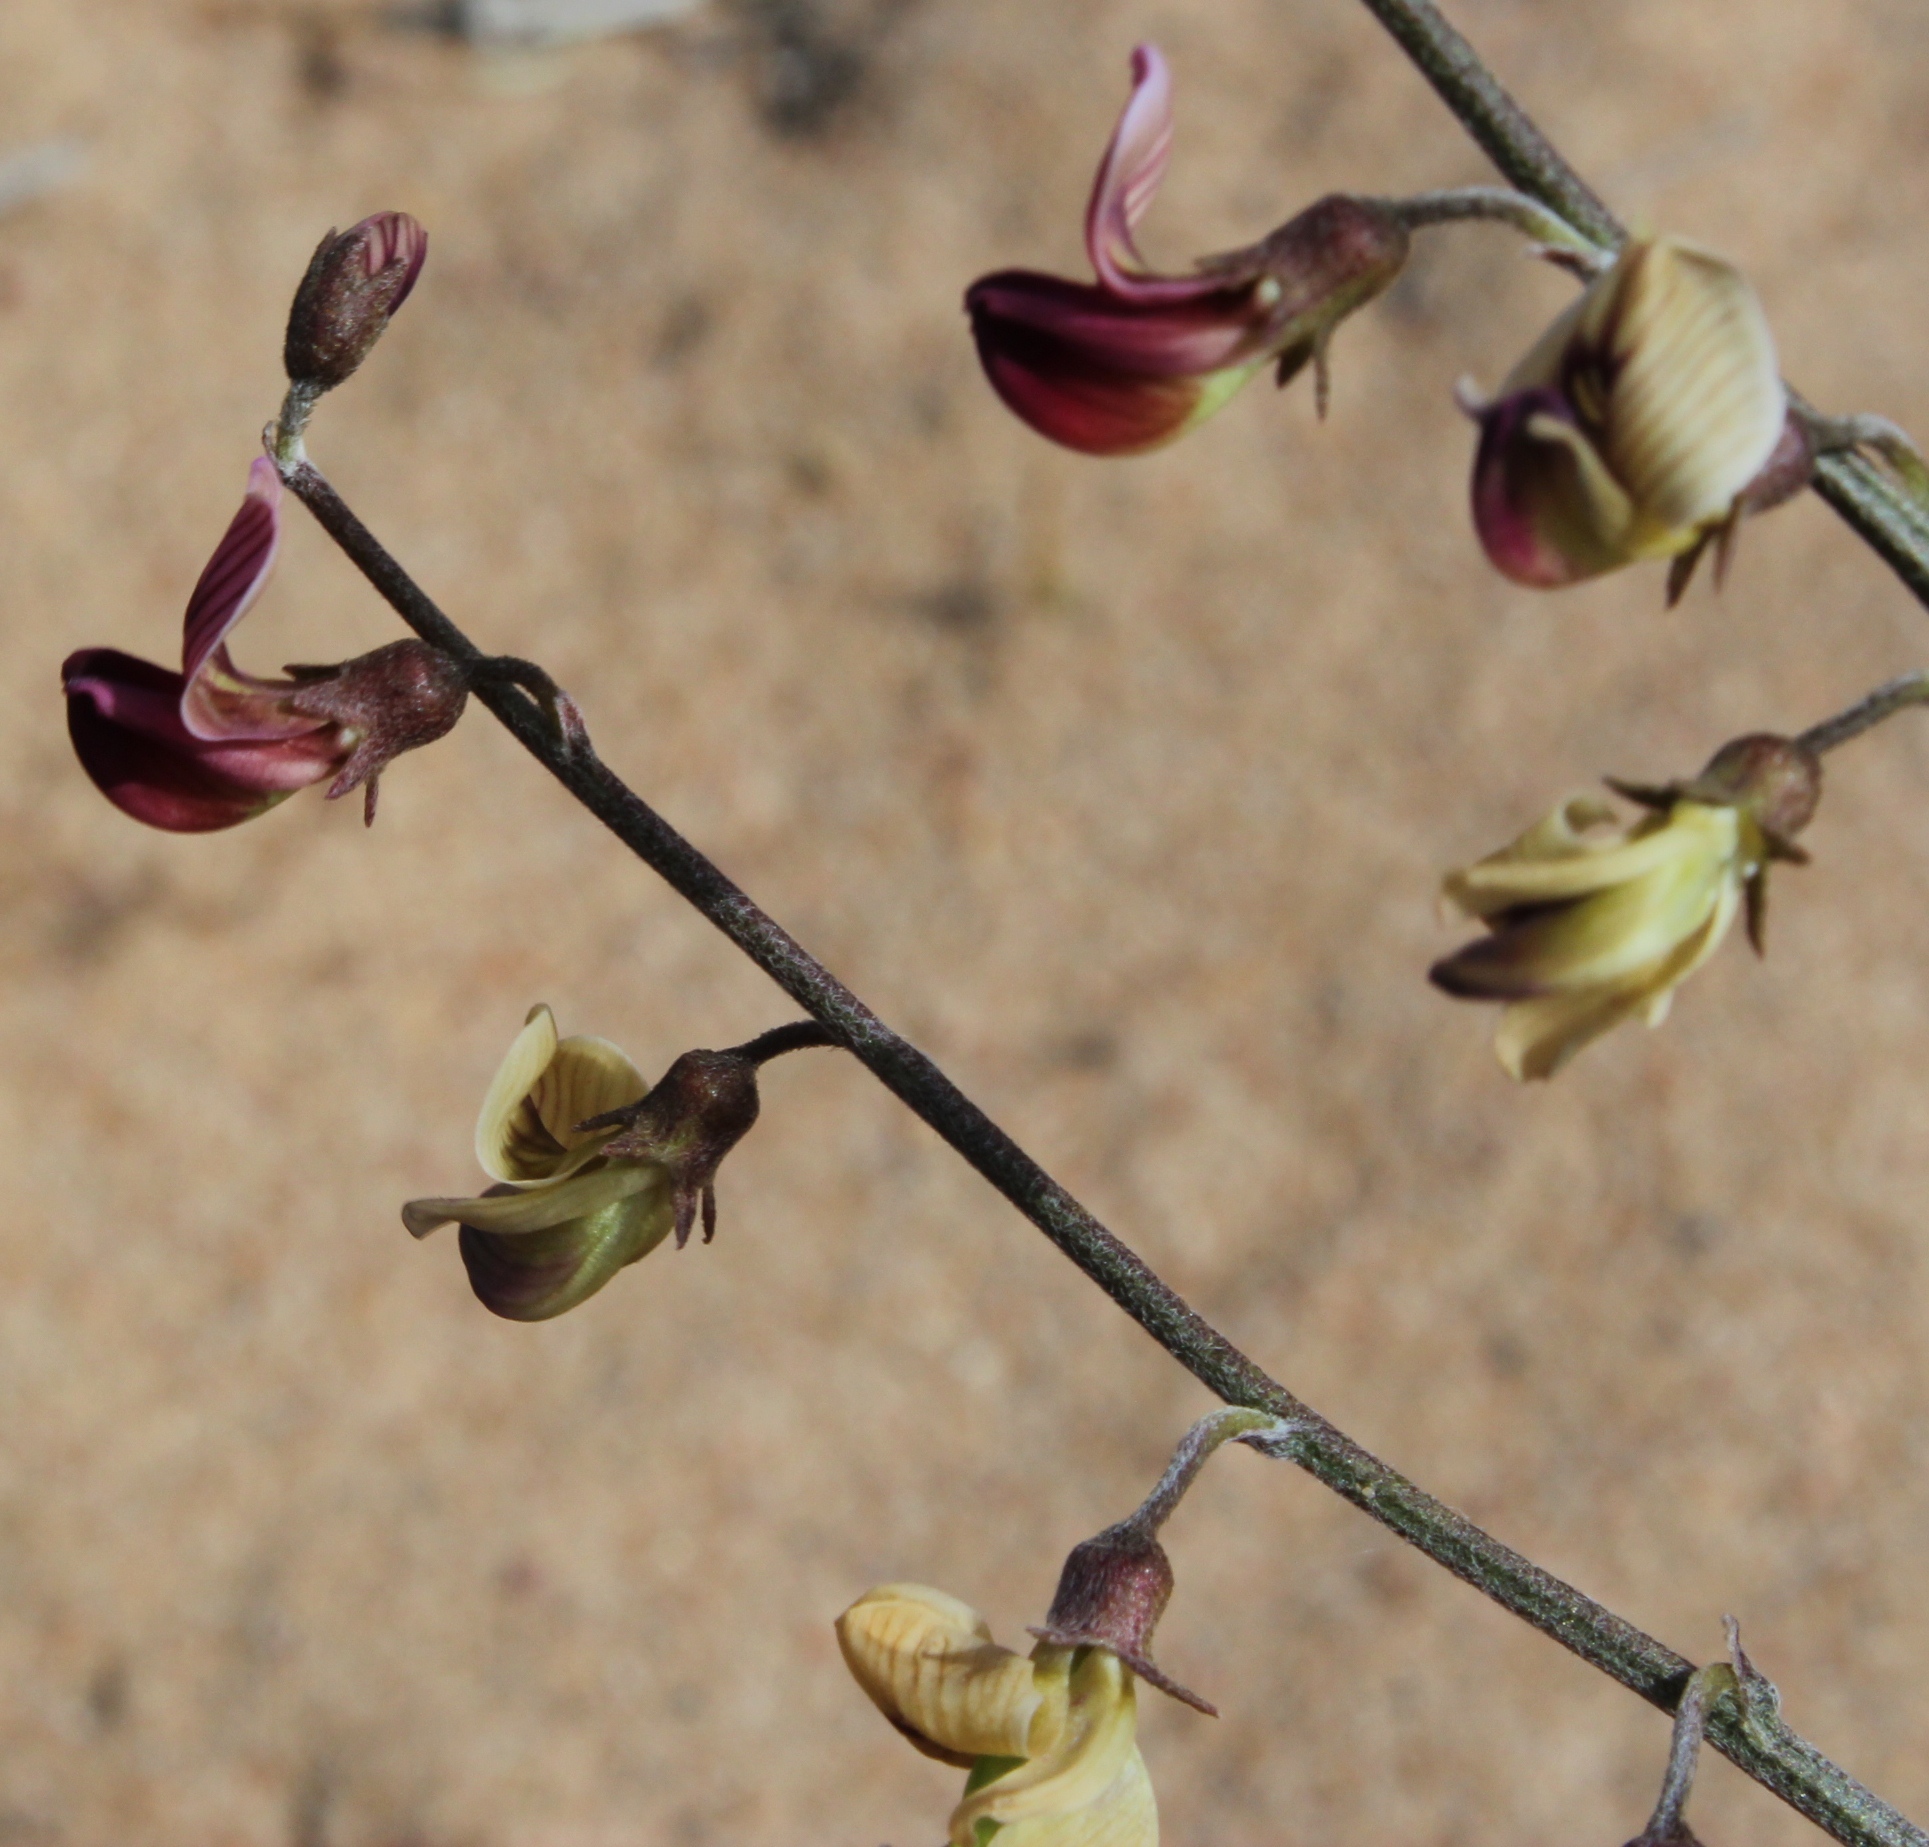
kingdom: Plantae
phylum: Tracheophyta
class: Magnoliopsida
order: Fabales
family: Fabaceae
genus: Lessertia
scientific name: Lessertia diffusa
